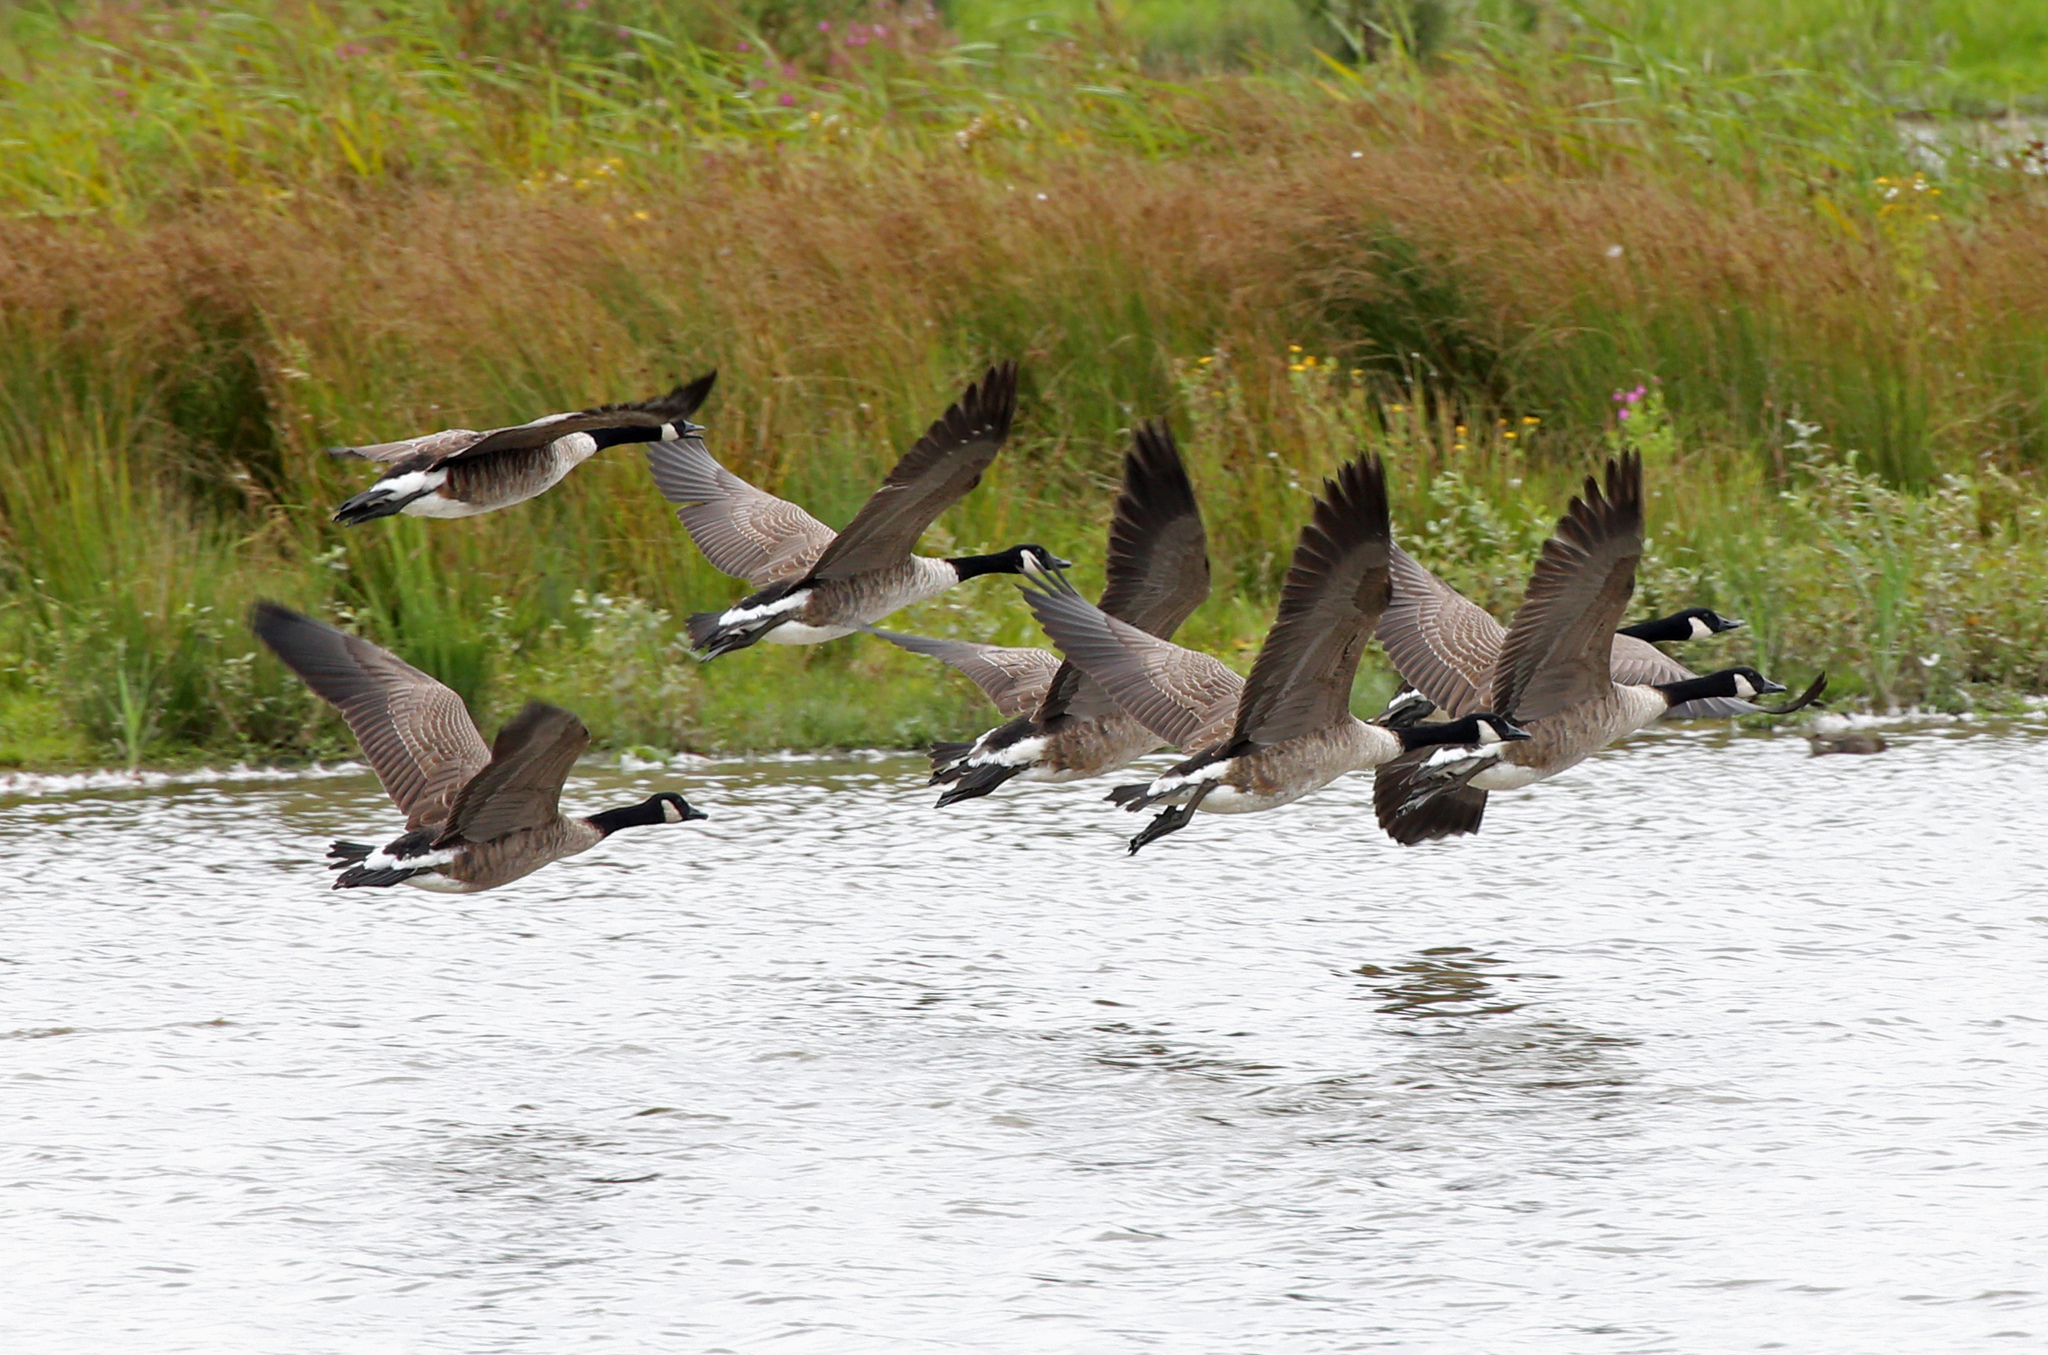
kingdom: Animalia
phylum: Chordata
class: Aves
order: Anseriformes
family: Anatidae
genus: Branta
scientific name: Branta canadensis
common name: Canada goose
